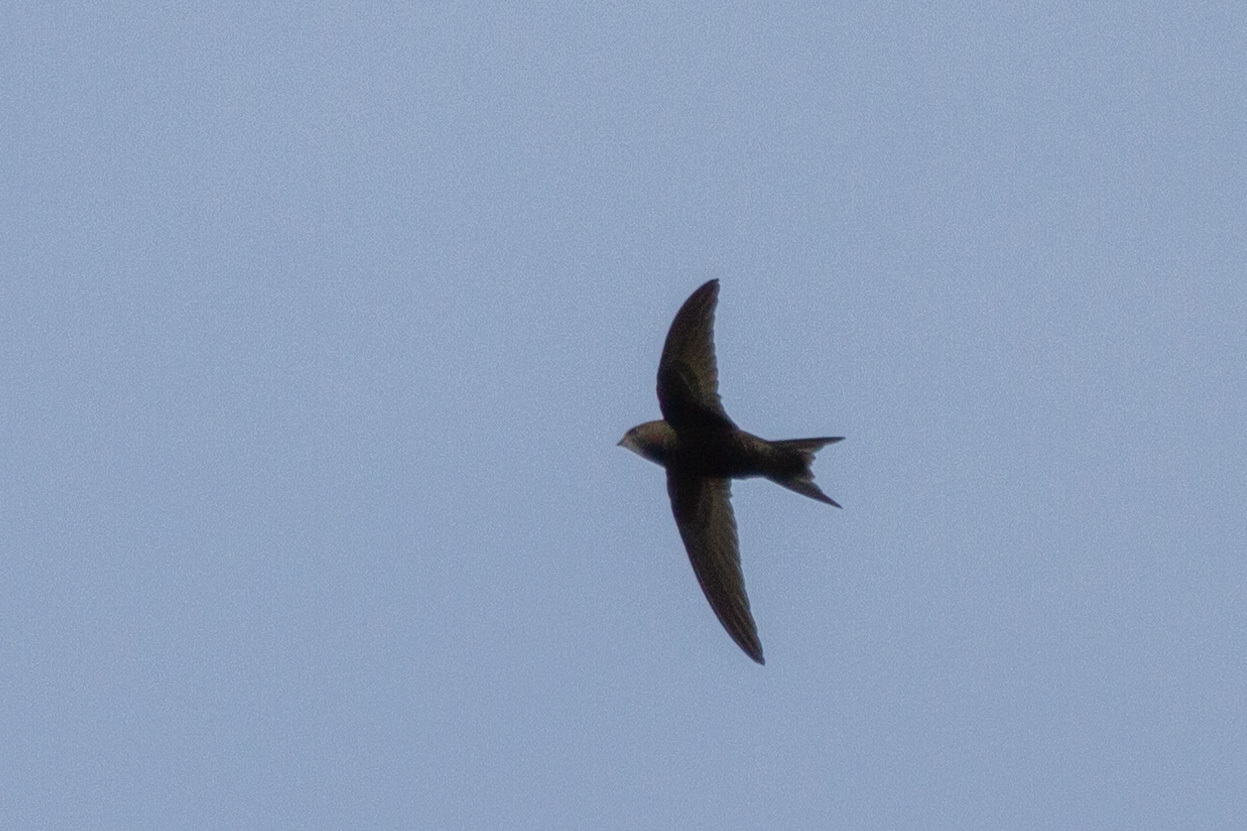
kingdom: Animalia
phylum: Chordata
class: Aves
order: Apodiformes
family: Apodidae
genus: Apus
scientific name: Apus apus
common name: Common swift
